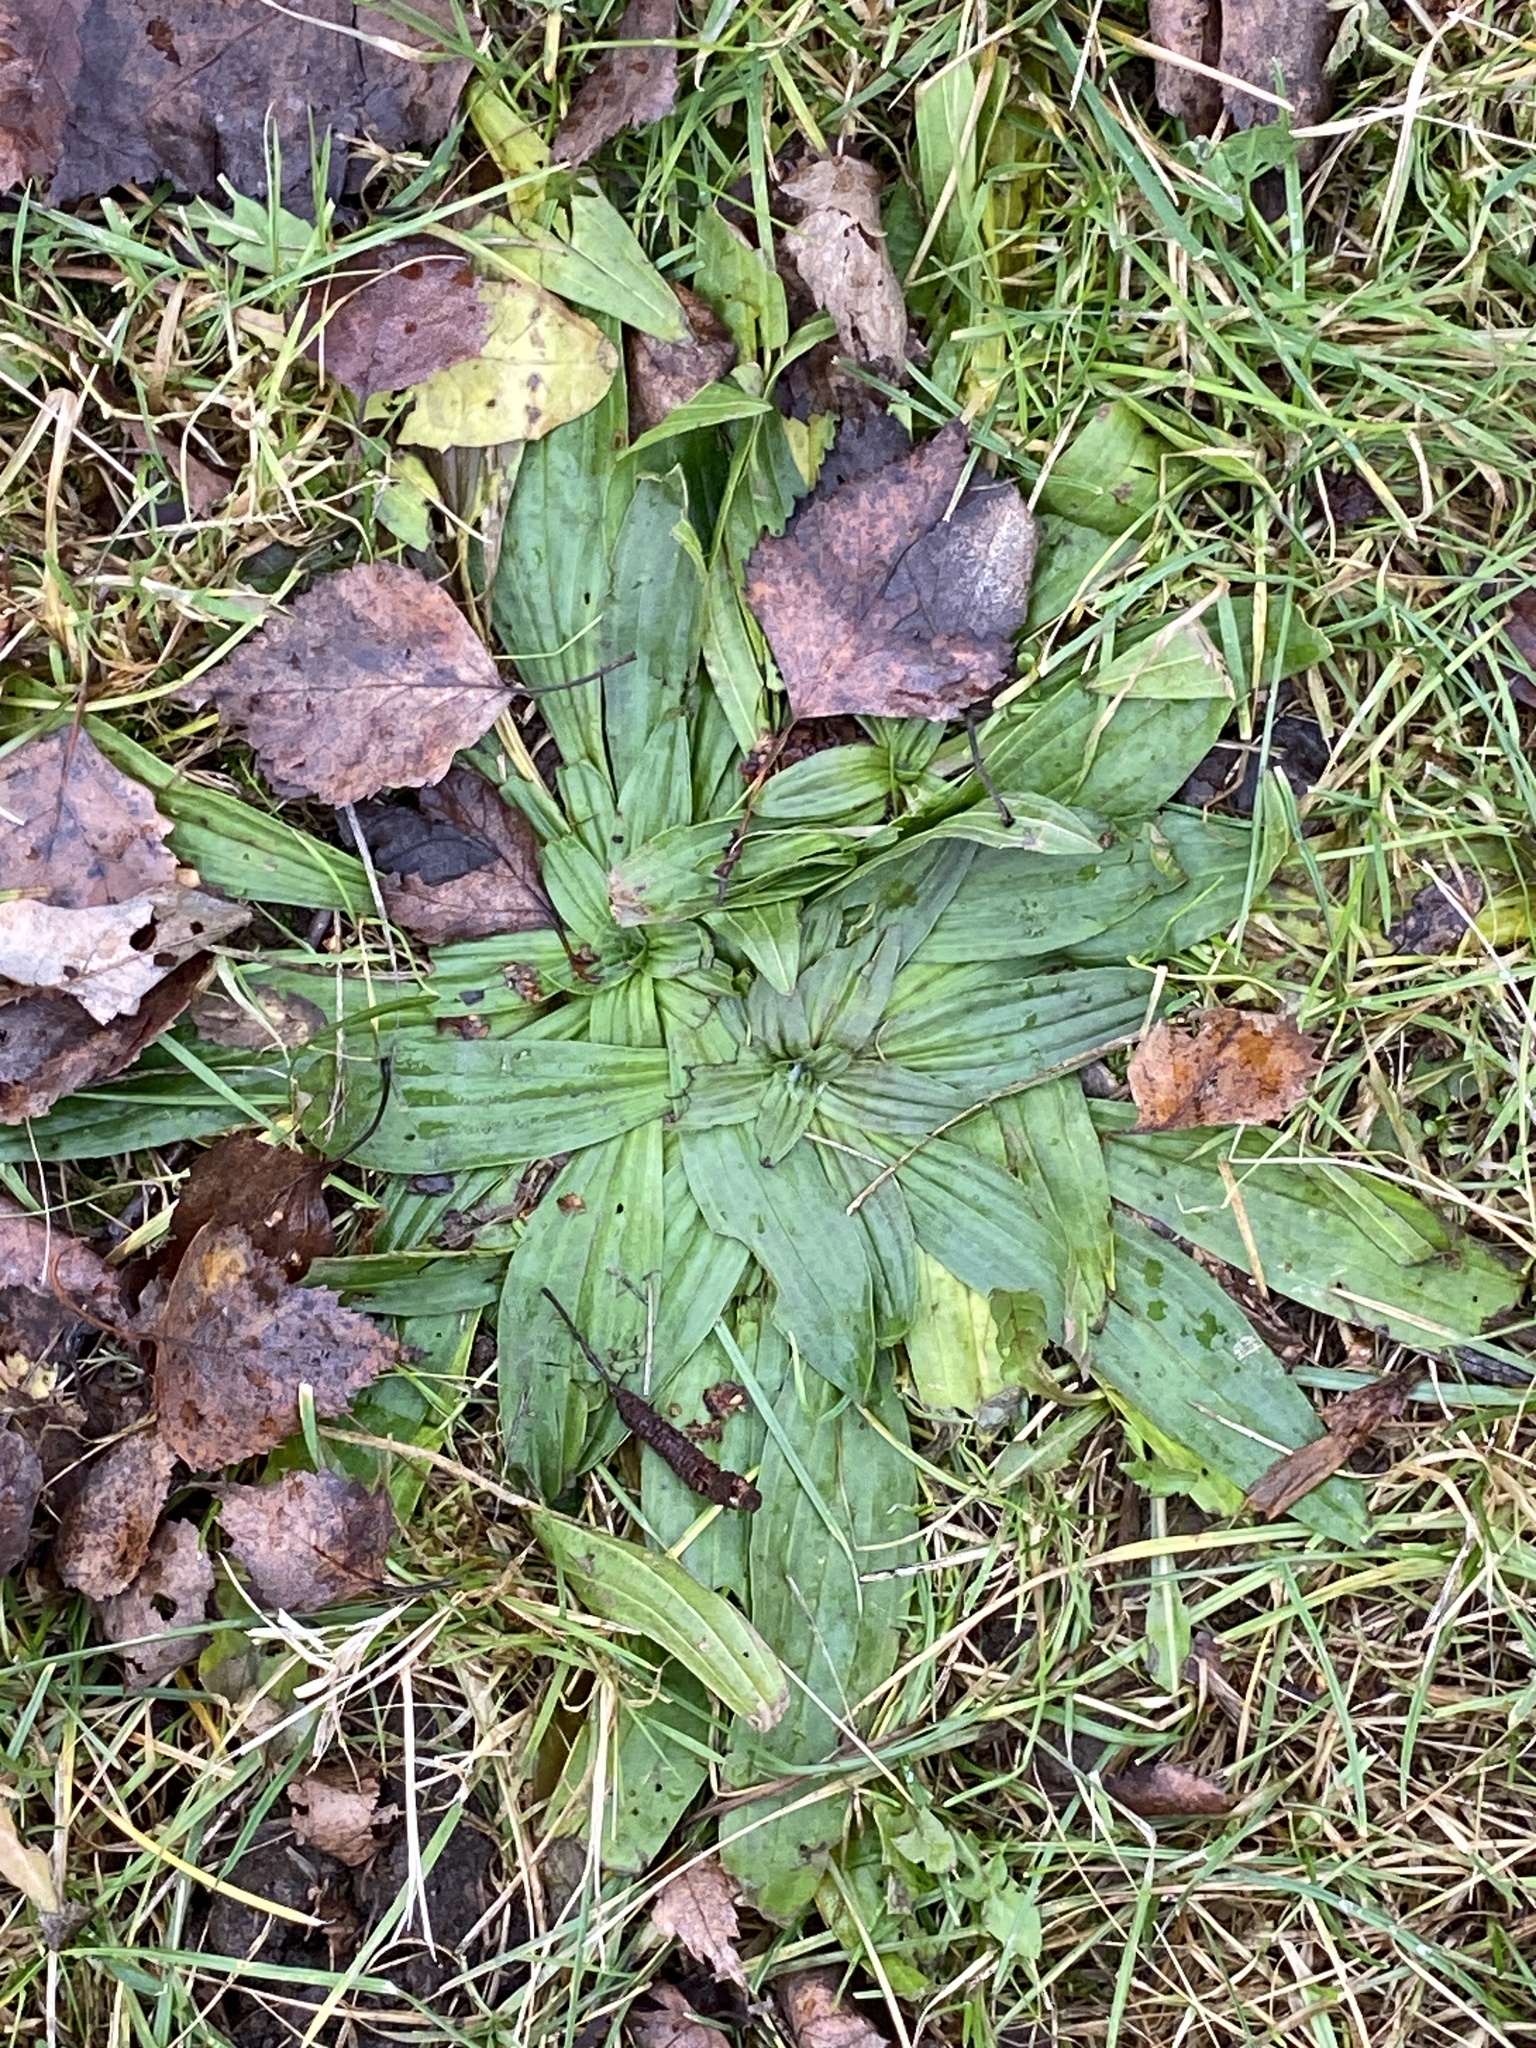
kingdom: Plantae
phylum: Tracheophyta
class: Magnoliopsida
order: Lamiales
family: Plantaginaceae
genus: Plantago
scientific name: Plantago lanceolata
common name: Ribwort plantain
